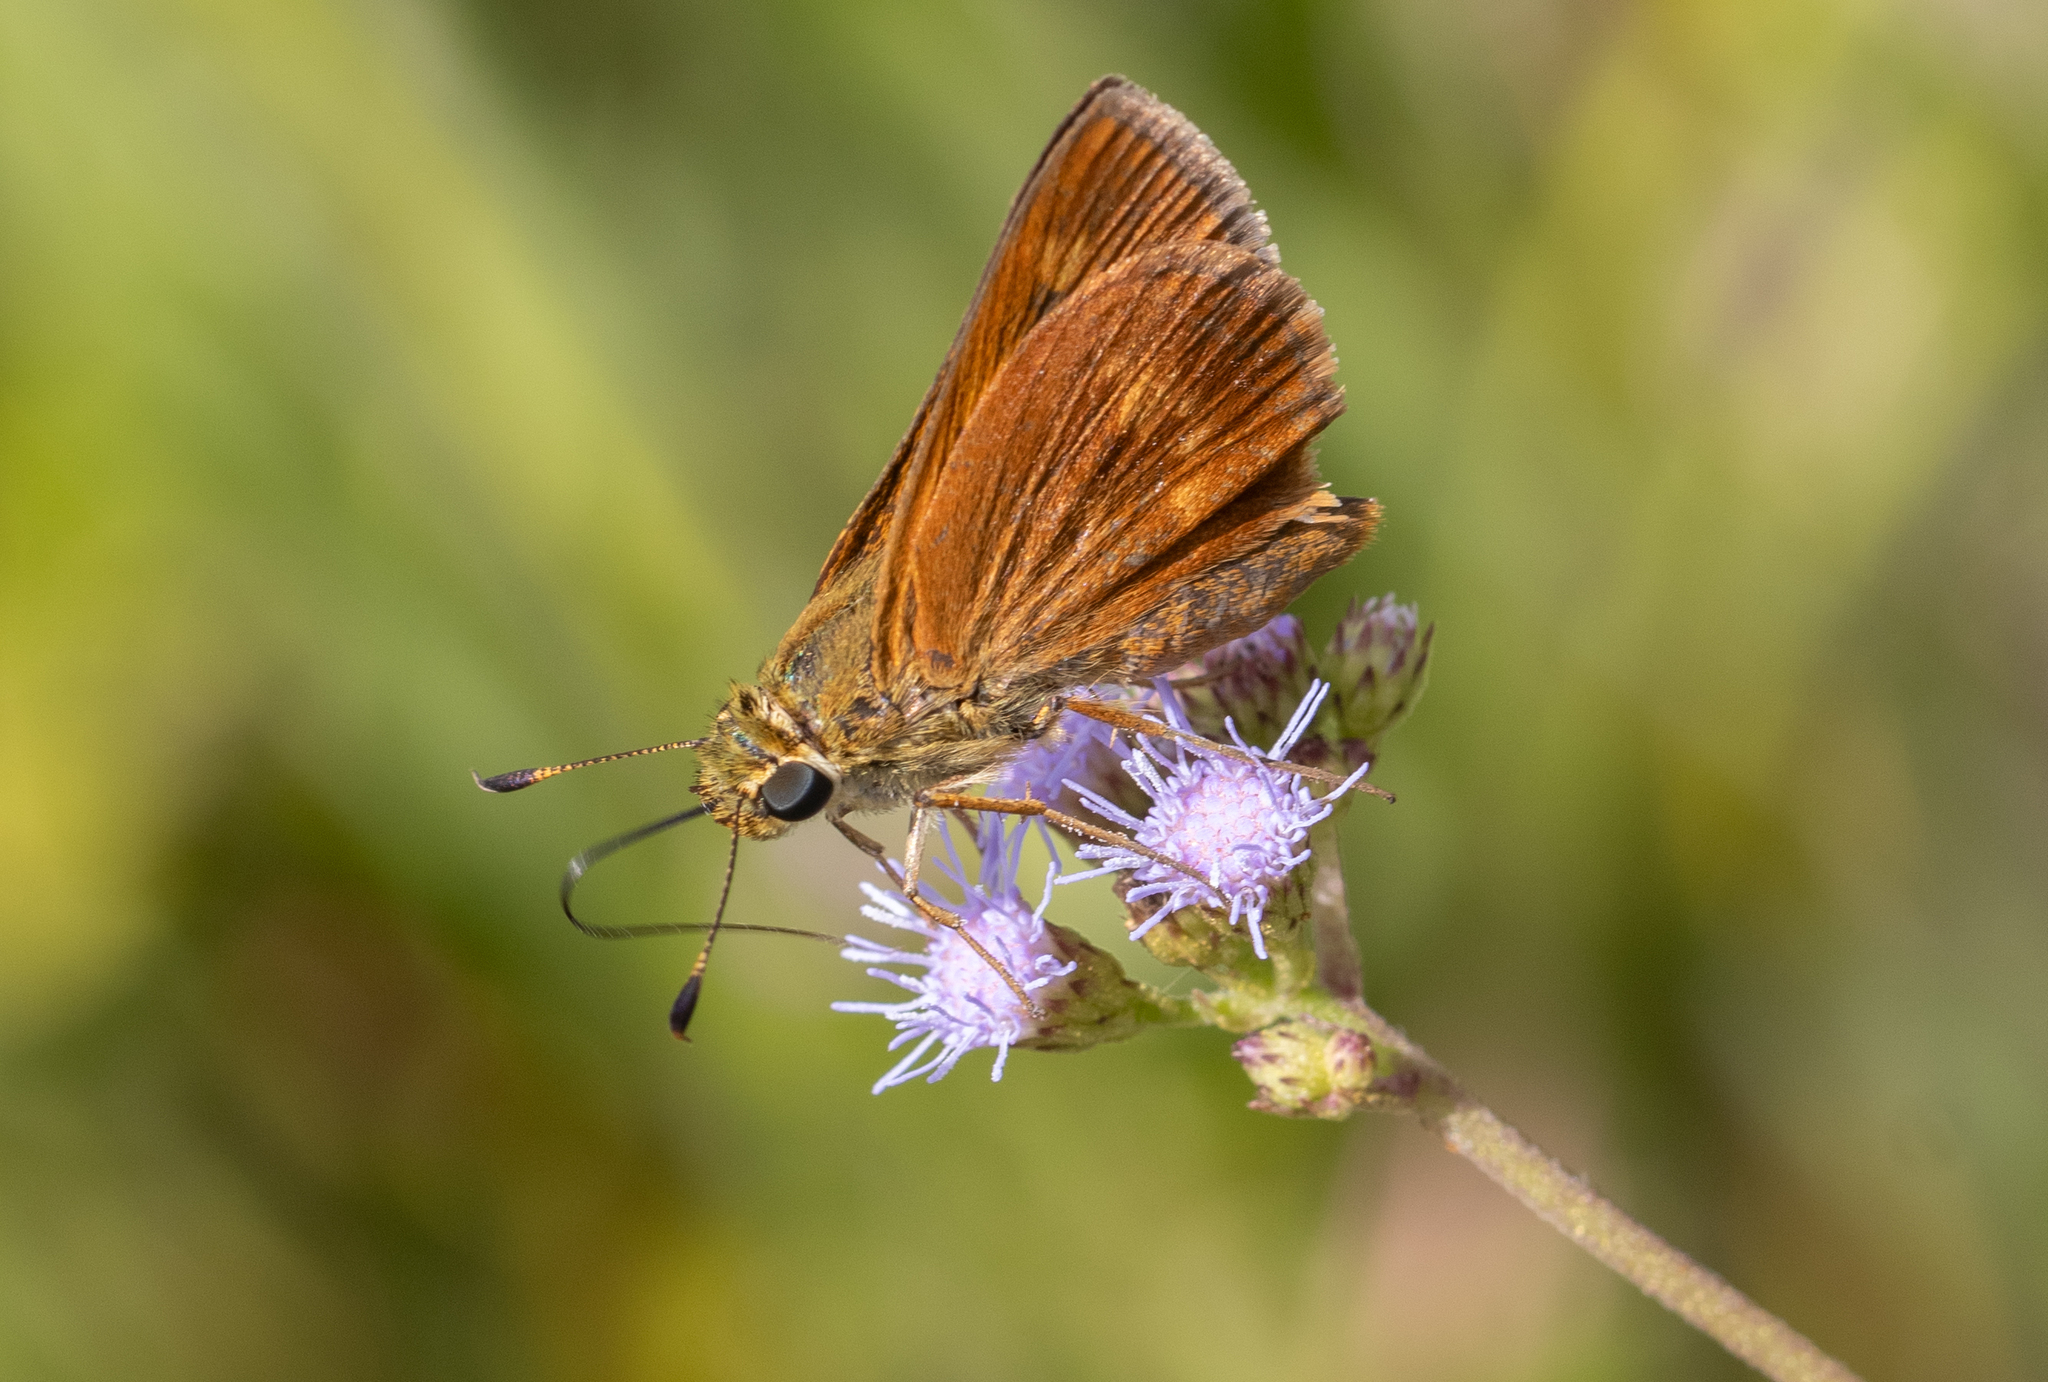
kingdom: Animalia
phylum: Arthropoda
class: Insecta
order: Lepidoptera
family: Hesperiidae
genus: Polites
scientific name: Polites otho
